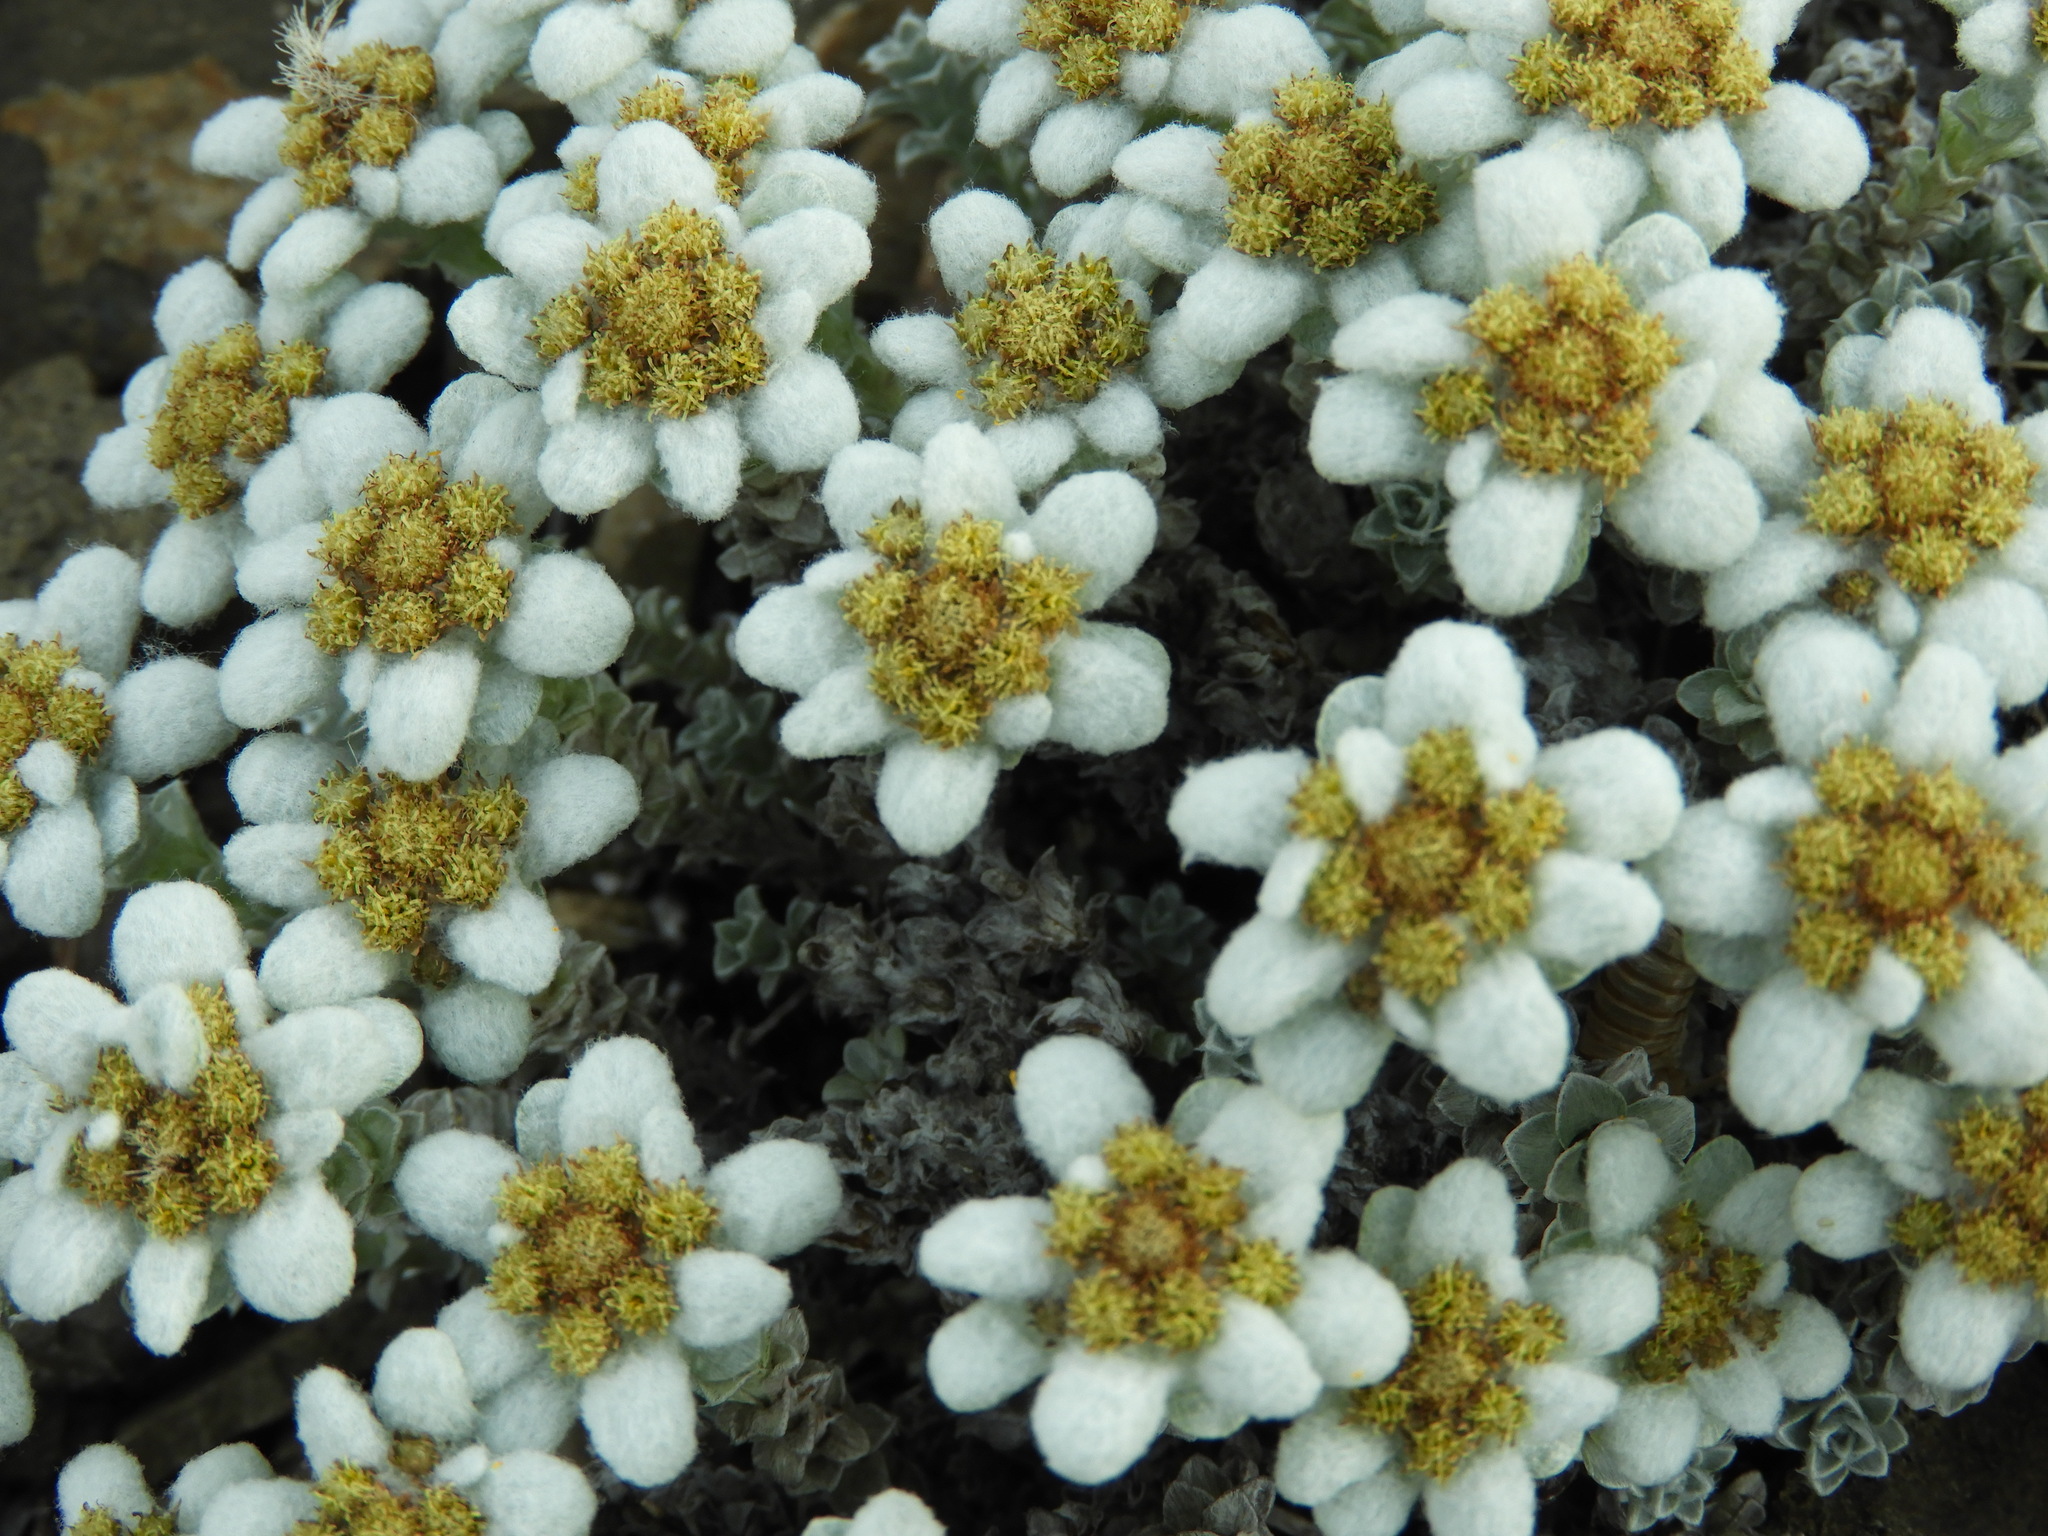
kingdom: Plantae
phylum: Tracheophyta
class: Magnoliopsida
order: Asterales
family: Asteraceae
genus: Leucogenes
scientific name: Leucogenes grandiceps
